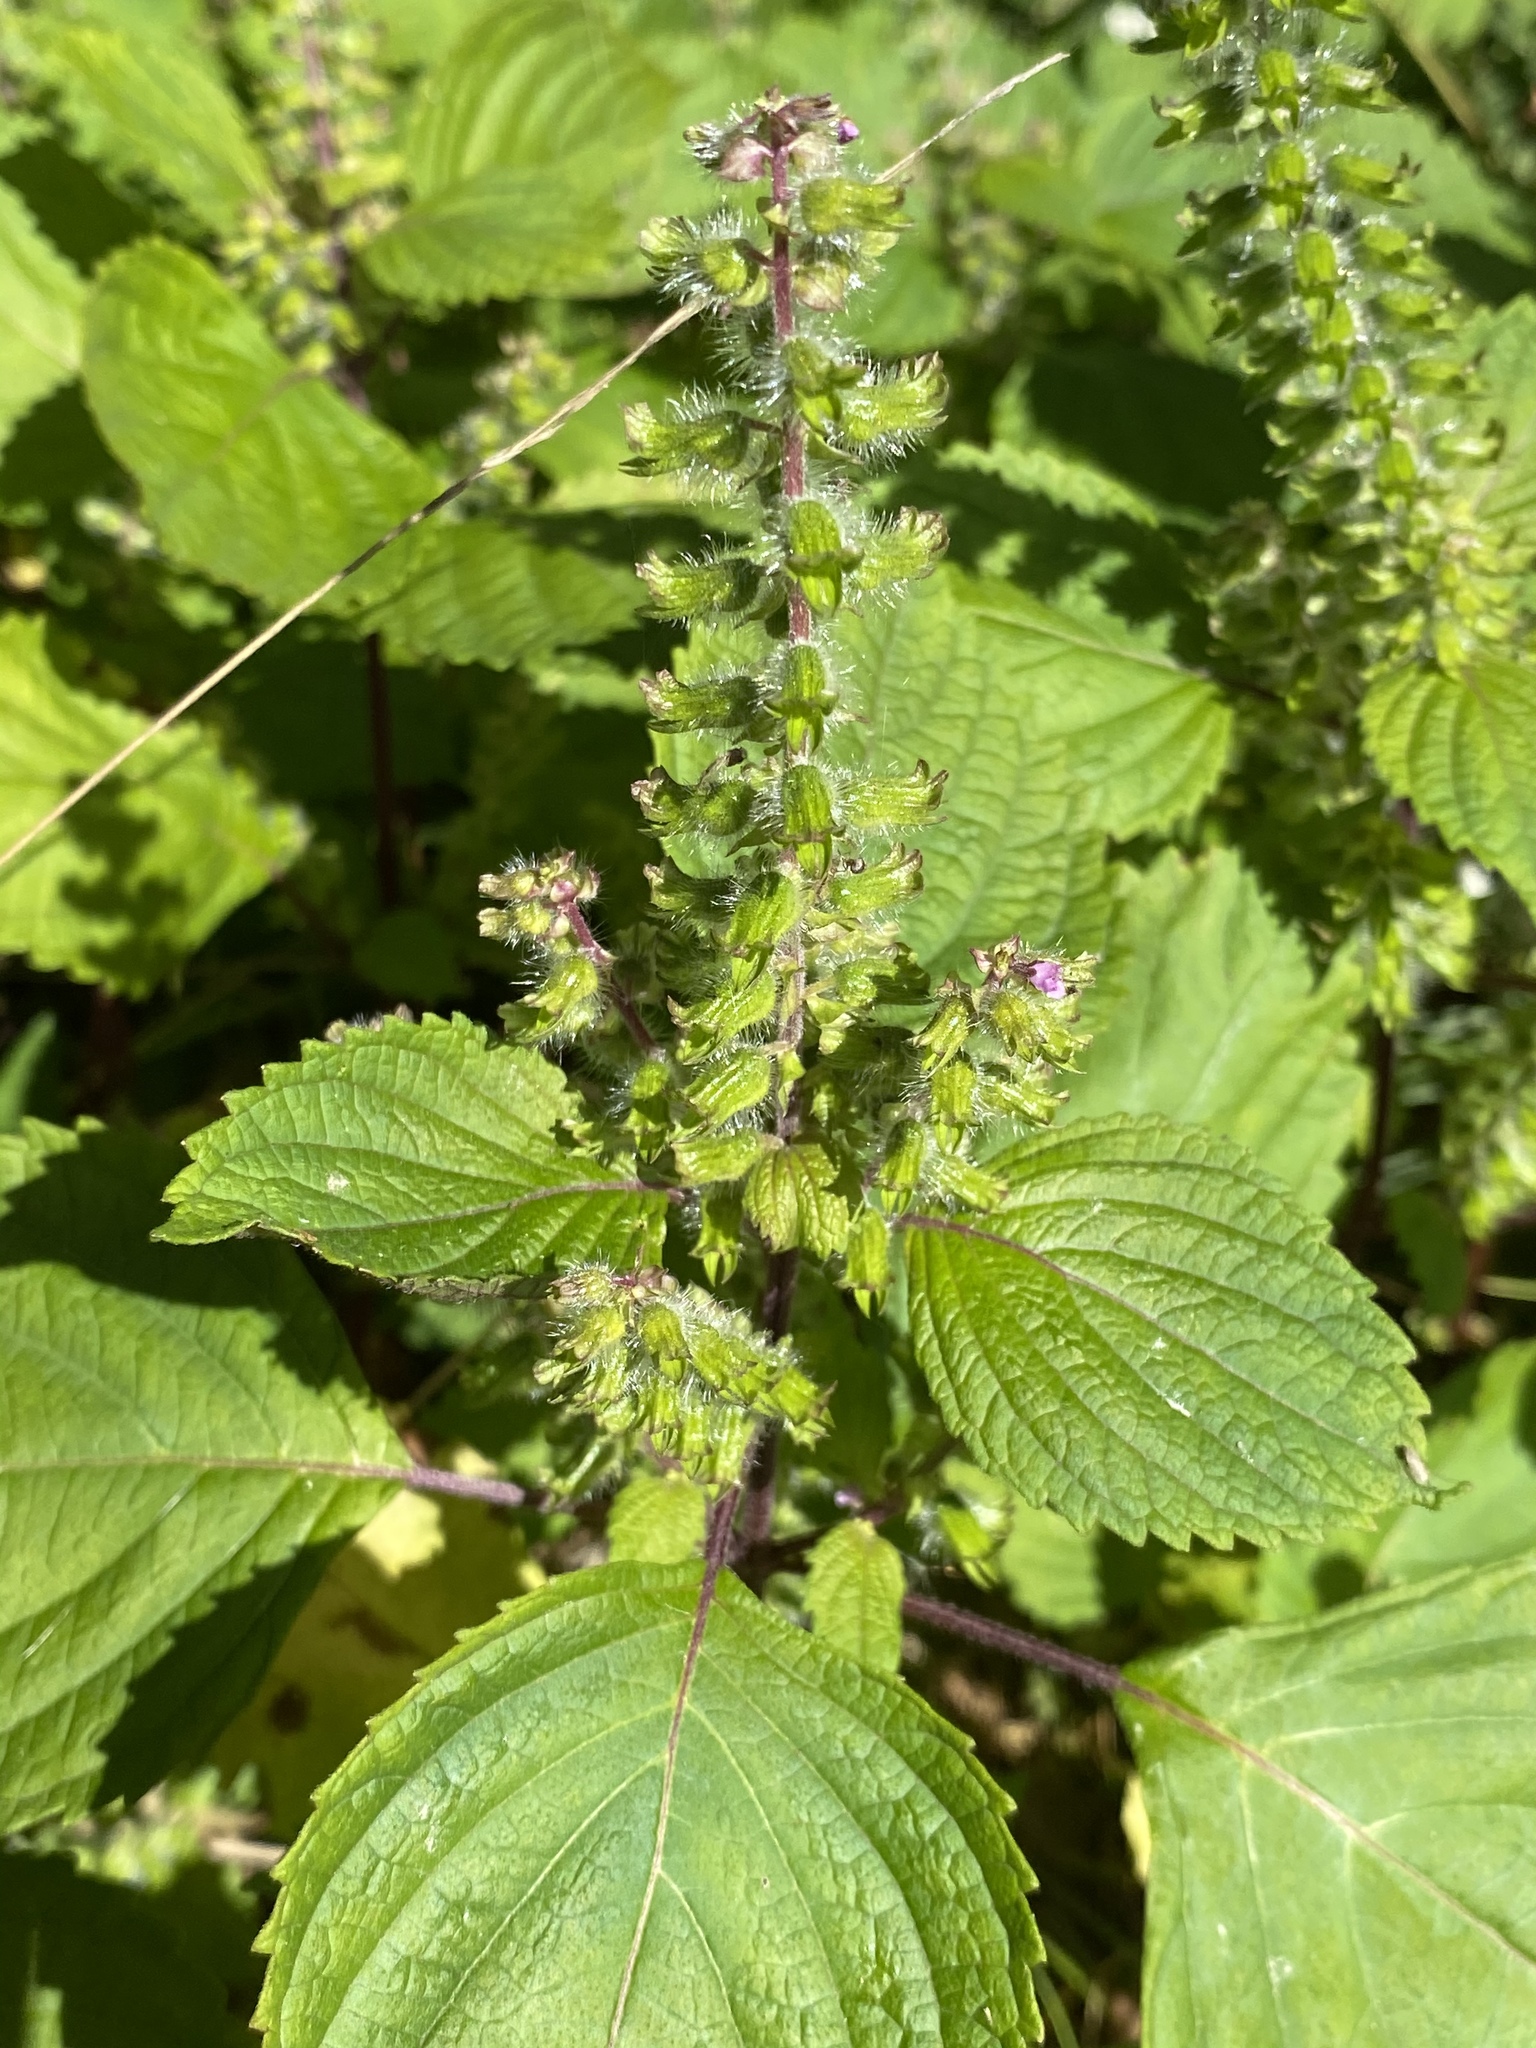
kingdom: Plantae
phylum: Tracheophyta
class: Magnoliopsida
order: Lamiales
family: Lamiaceae
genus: Perilla
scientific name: Perilla frutescens
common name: Perilla
